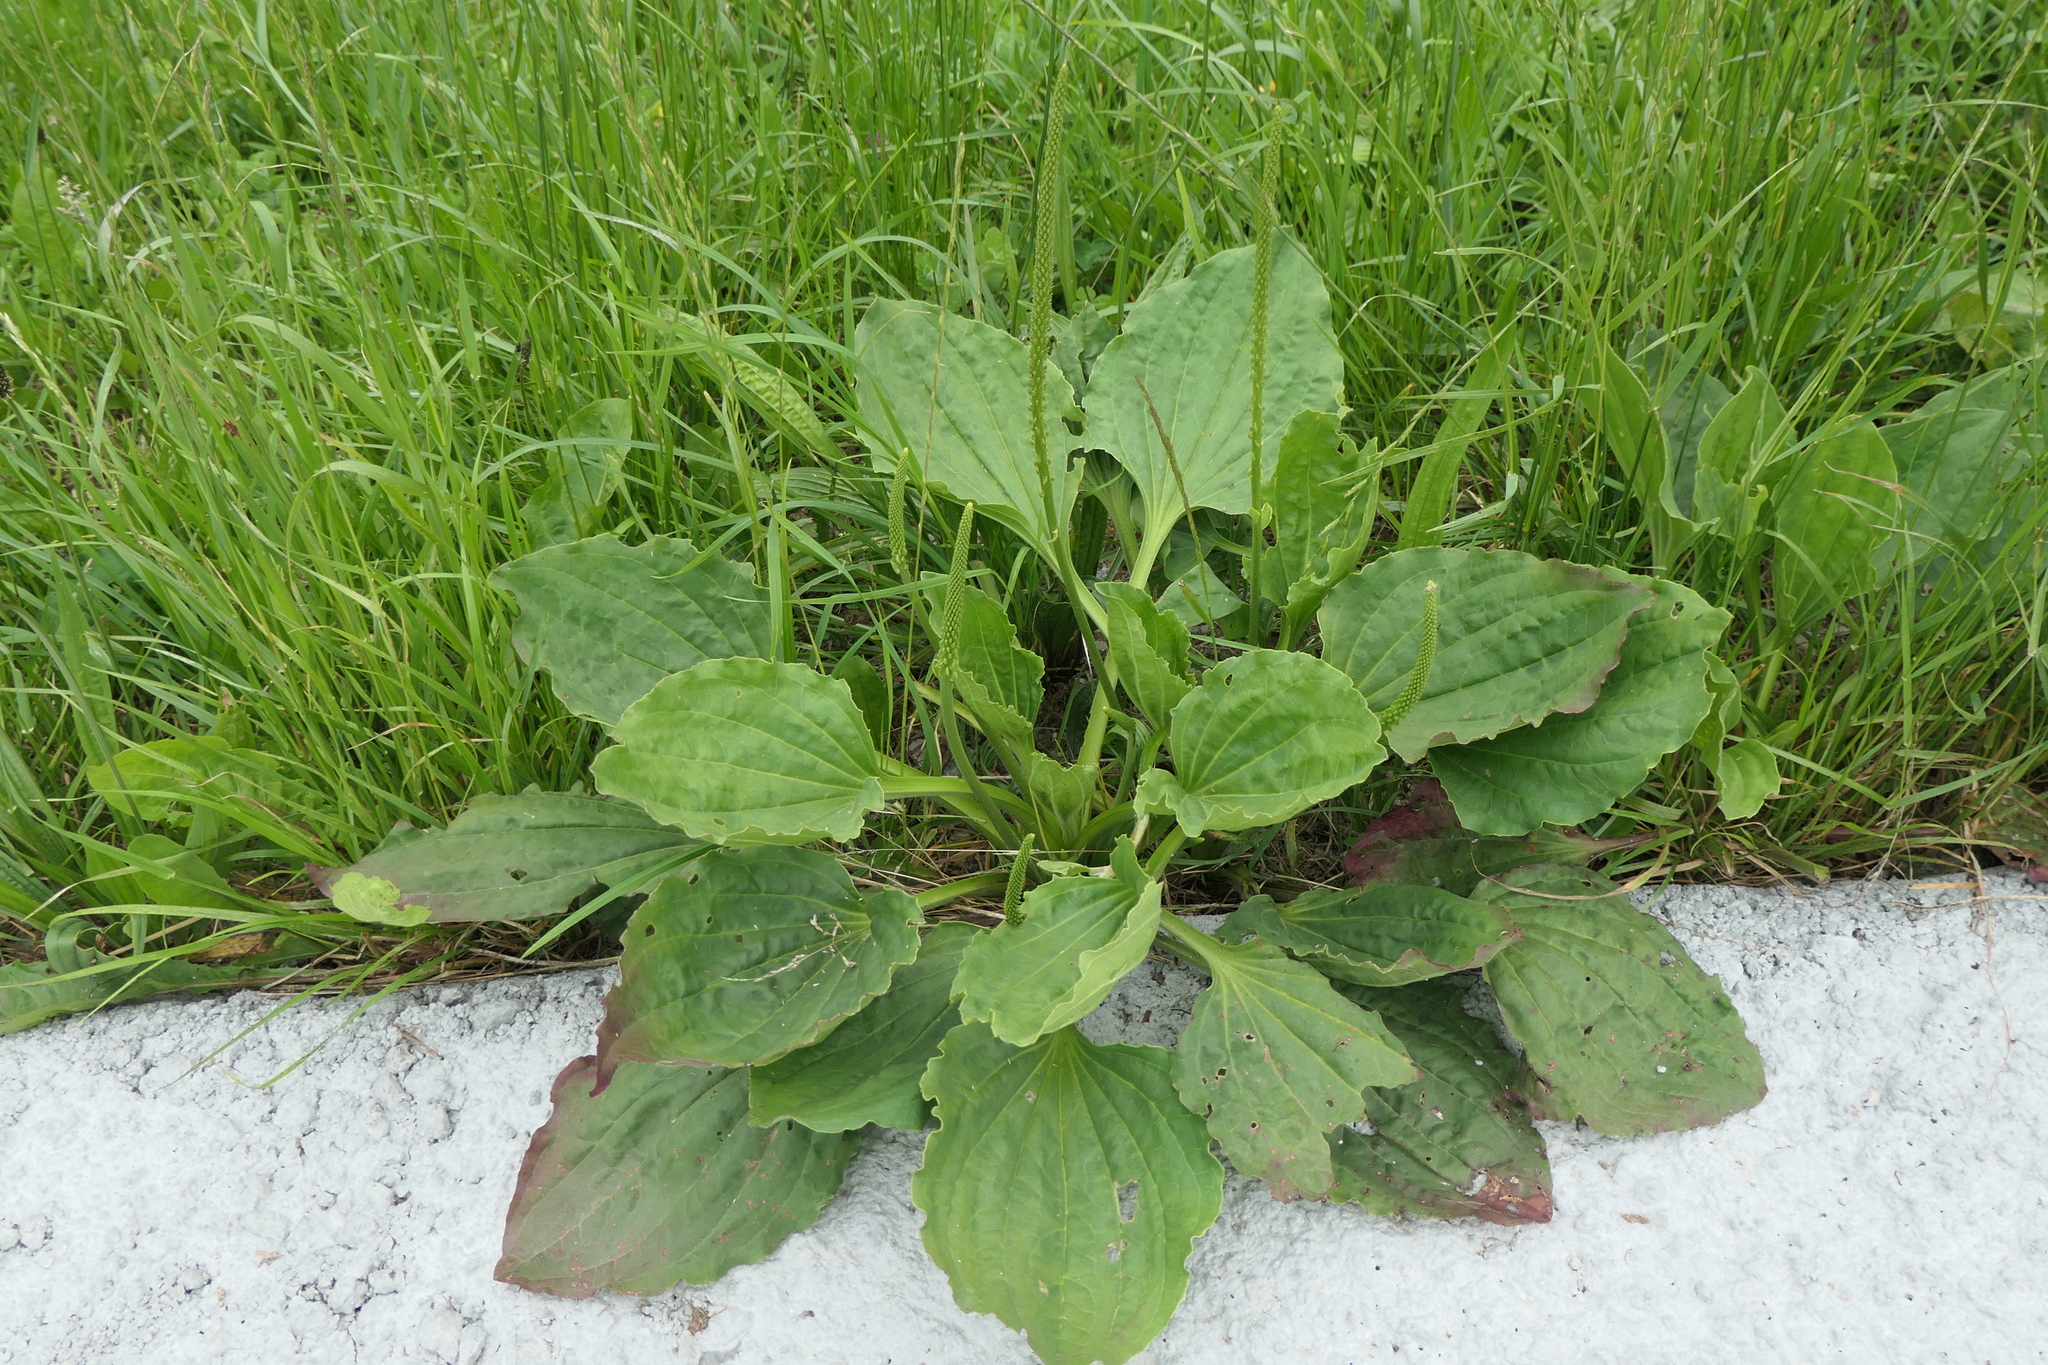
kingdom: Plantae
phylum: Tracheophyta
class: Magnoliopsida
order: Lamiales
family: Plantaginaceae
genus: Plantago
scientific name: Plantago major
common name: Common plantain
